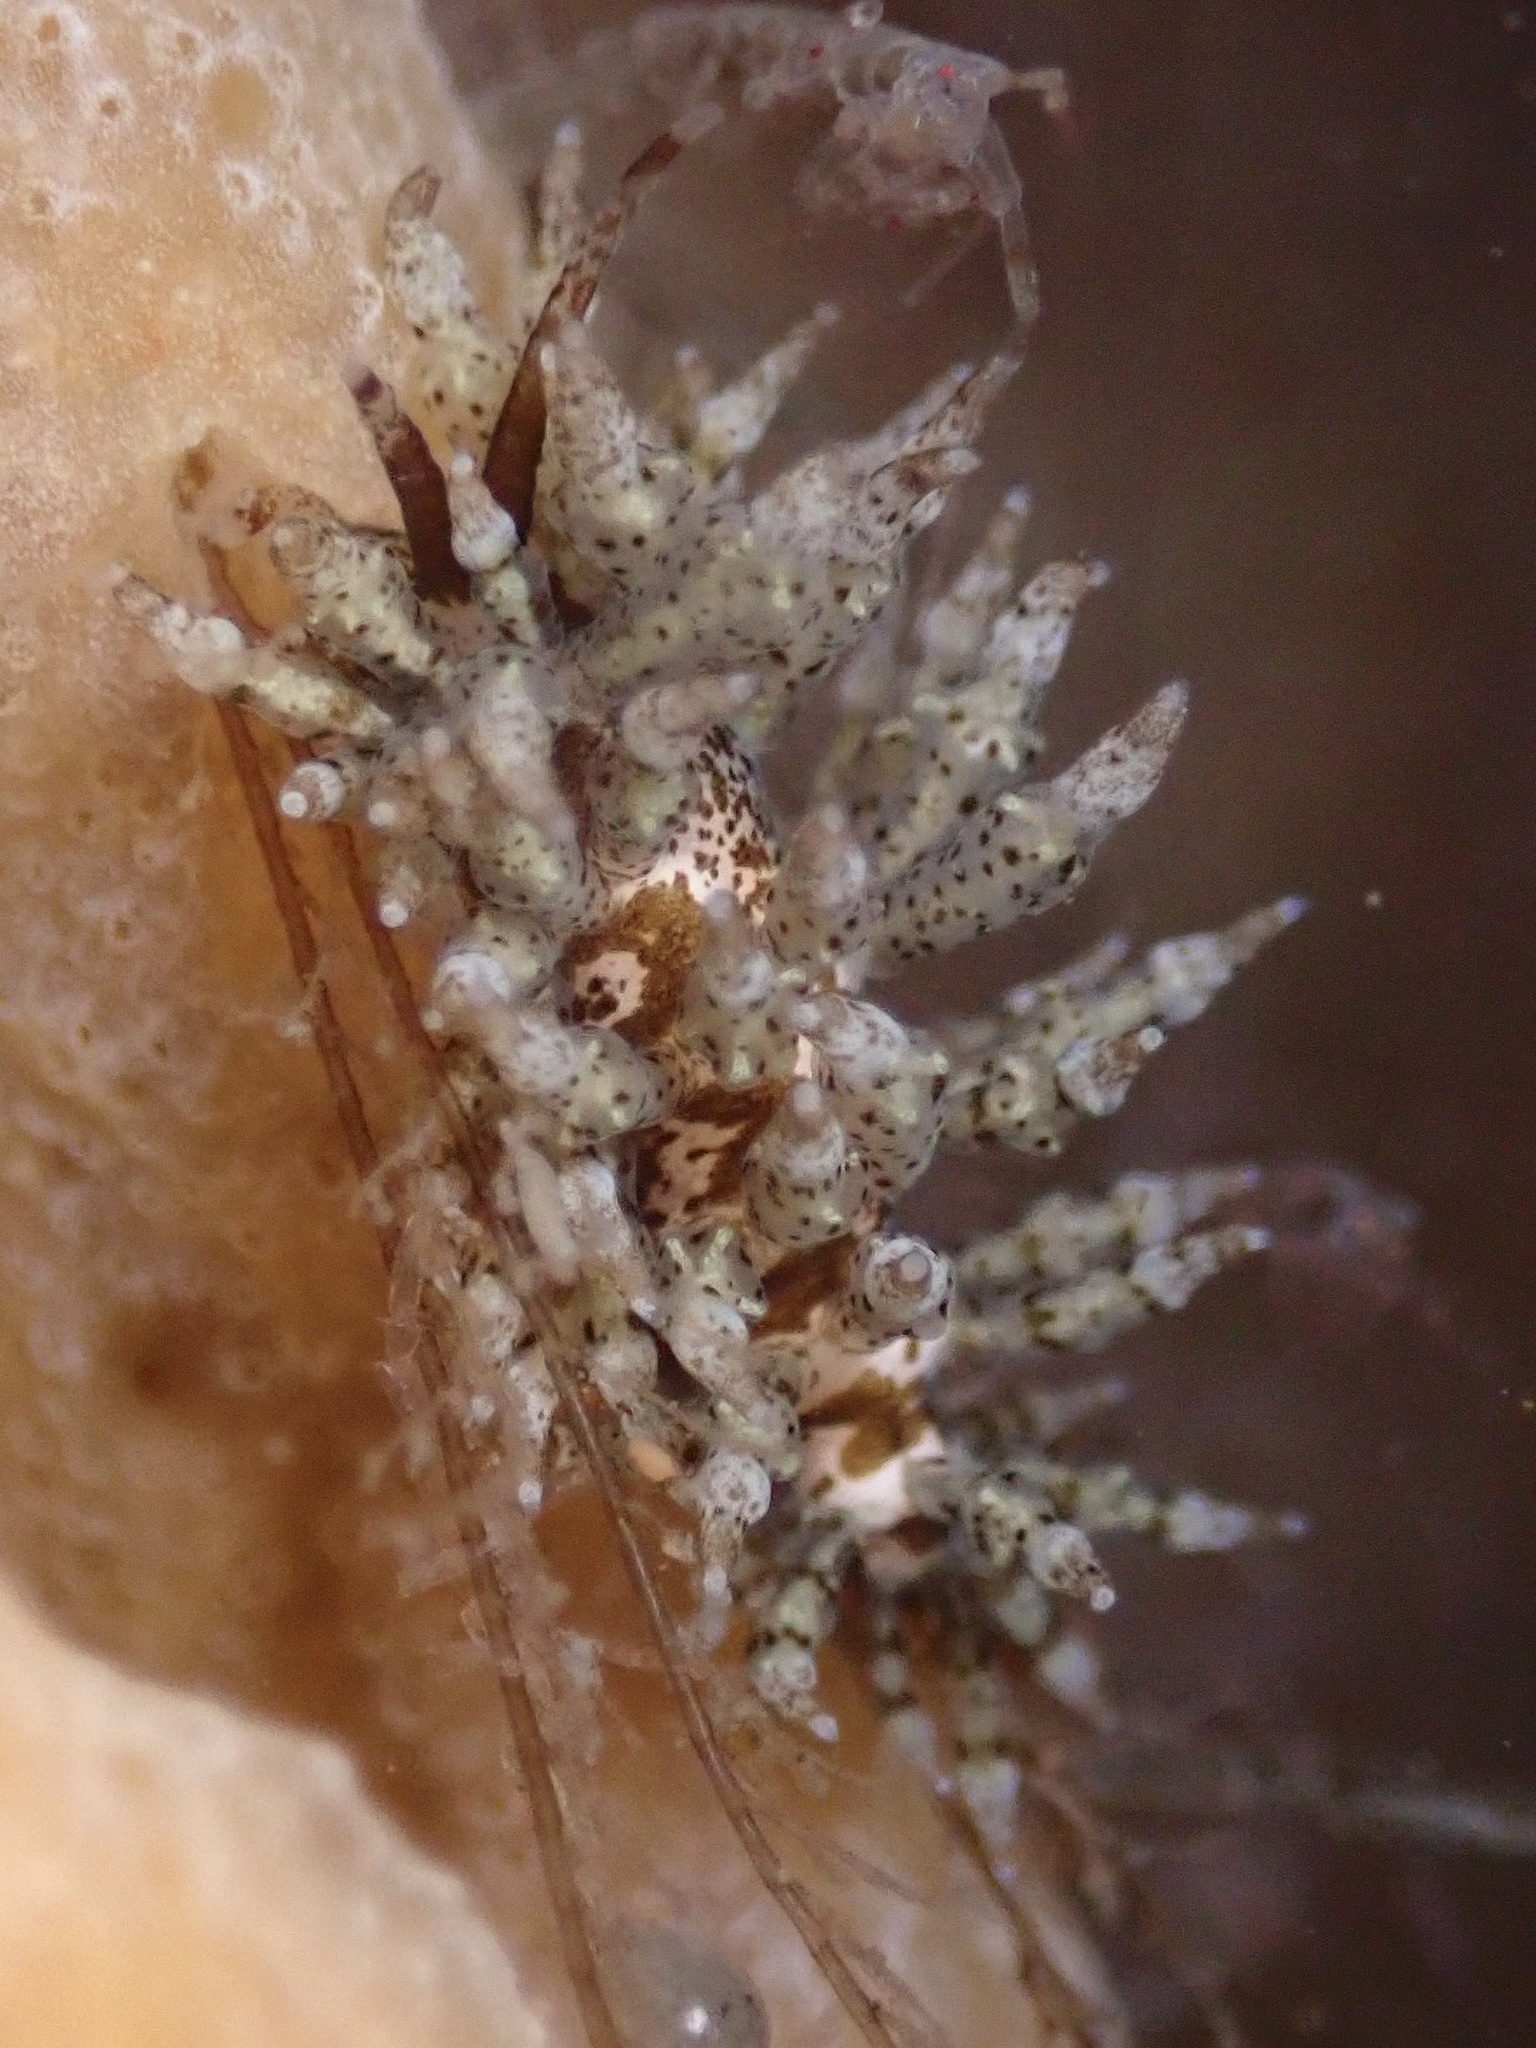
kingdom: Animalia
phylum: Mollusca
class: Gastropoda
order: Nudibranchia
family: Eubranchidae
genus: Eubranchus
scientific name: Eubranchus rustyus
